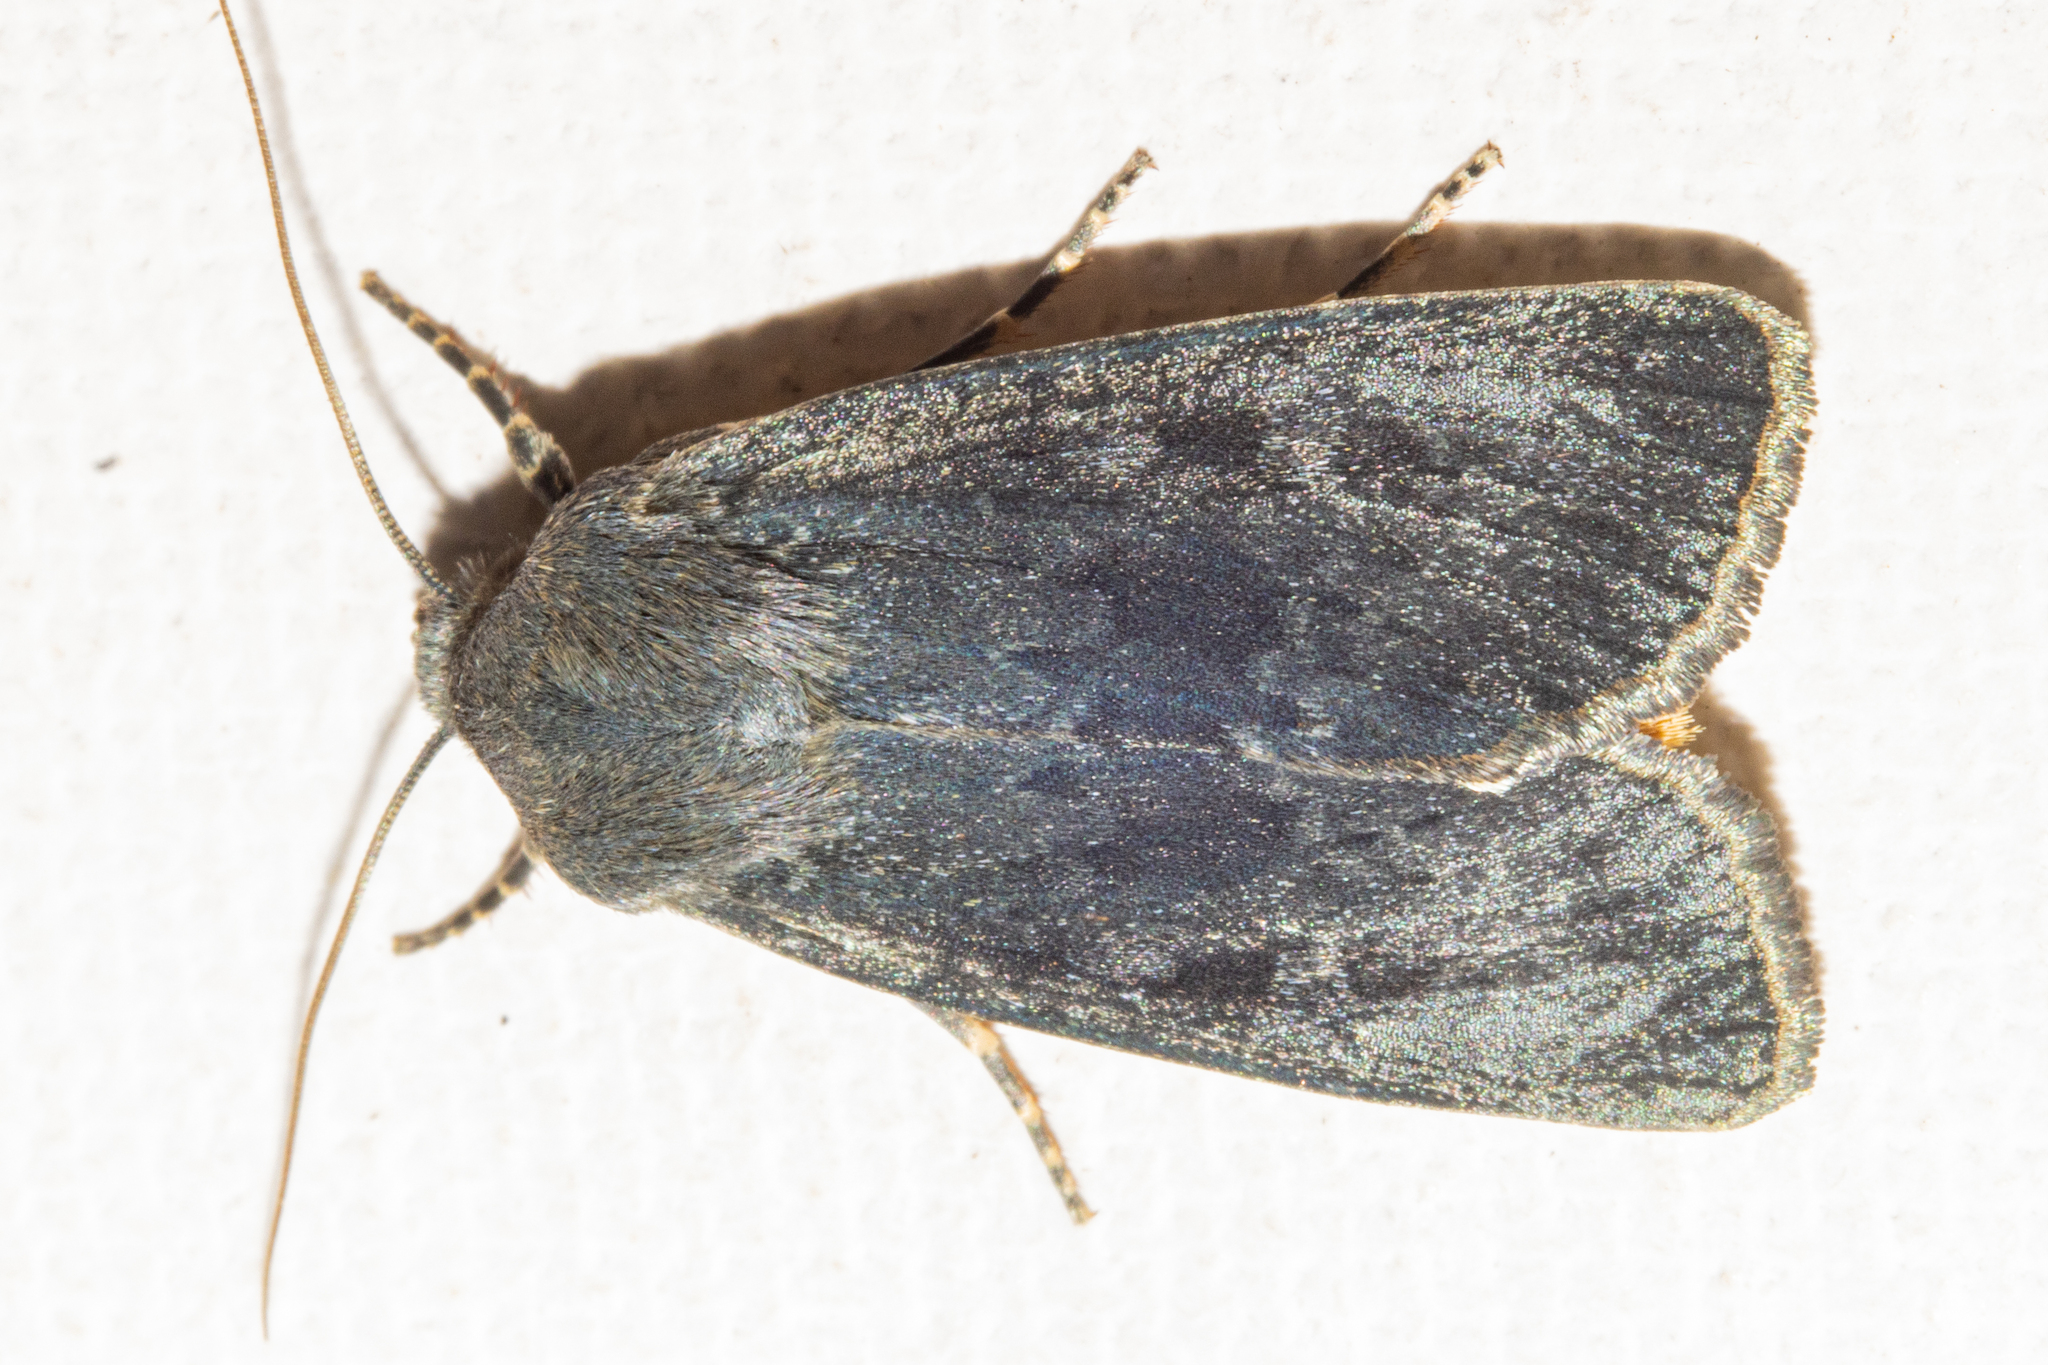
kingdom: Animalia
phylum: Arthropoda
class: Insecta
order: Lepidoptera
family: Noctuidae
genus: Physetica
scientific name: Physetica caerulea
